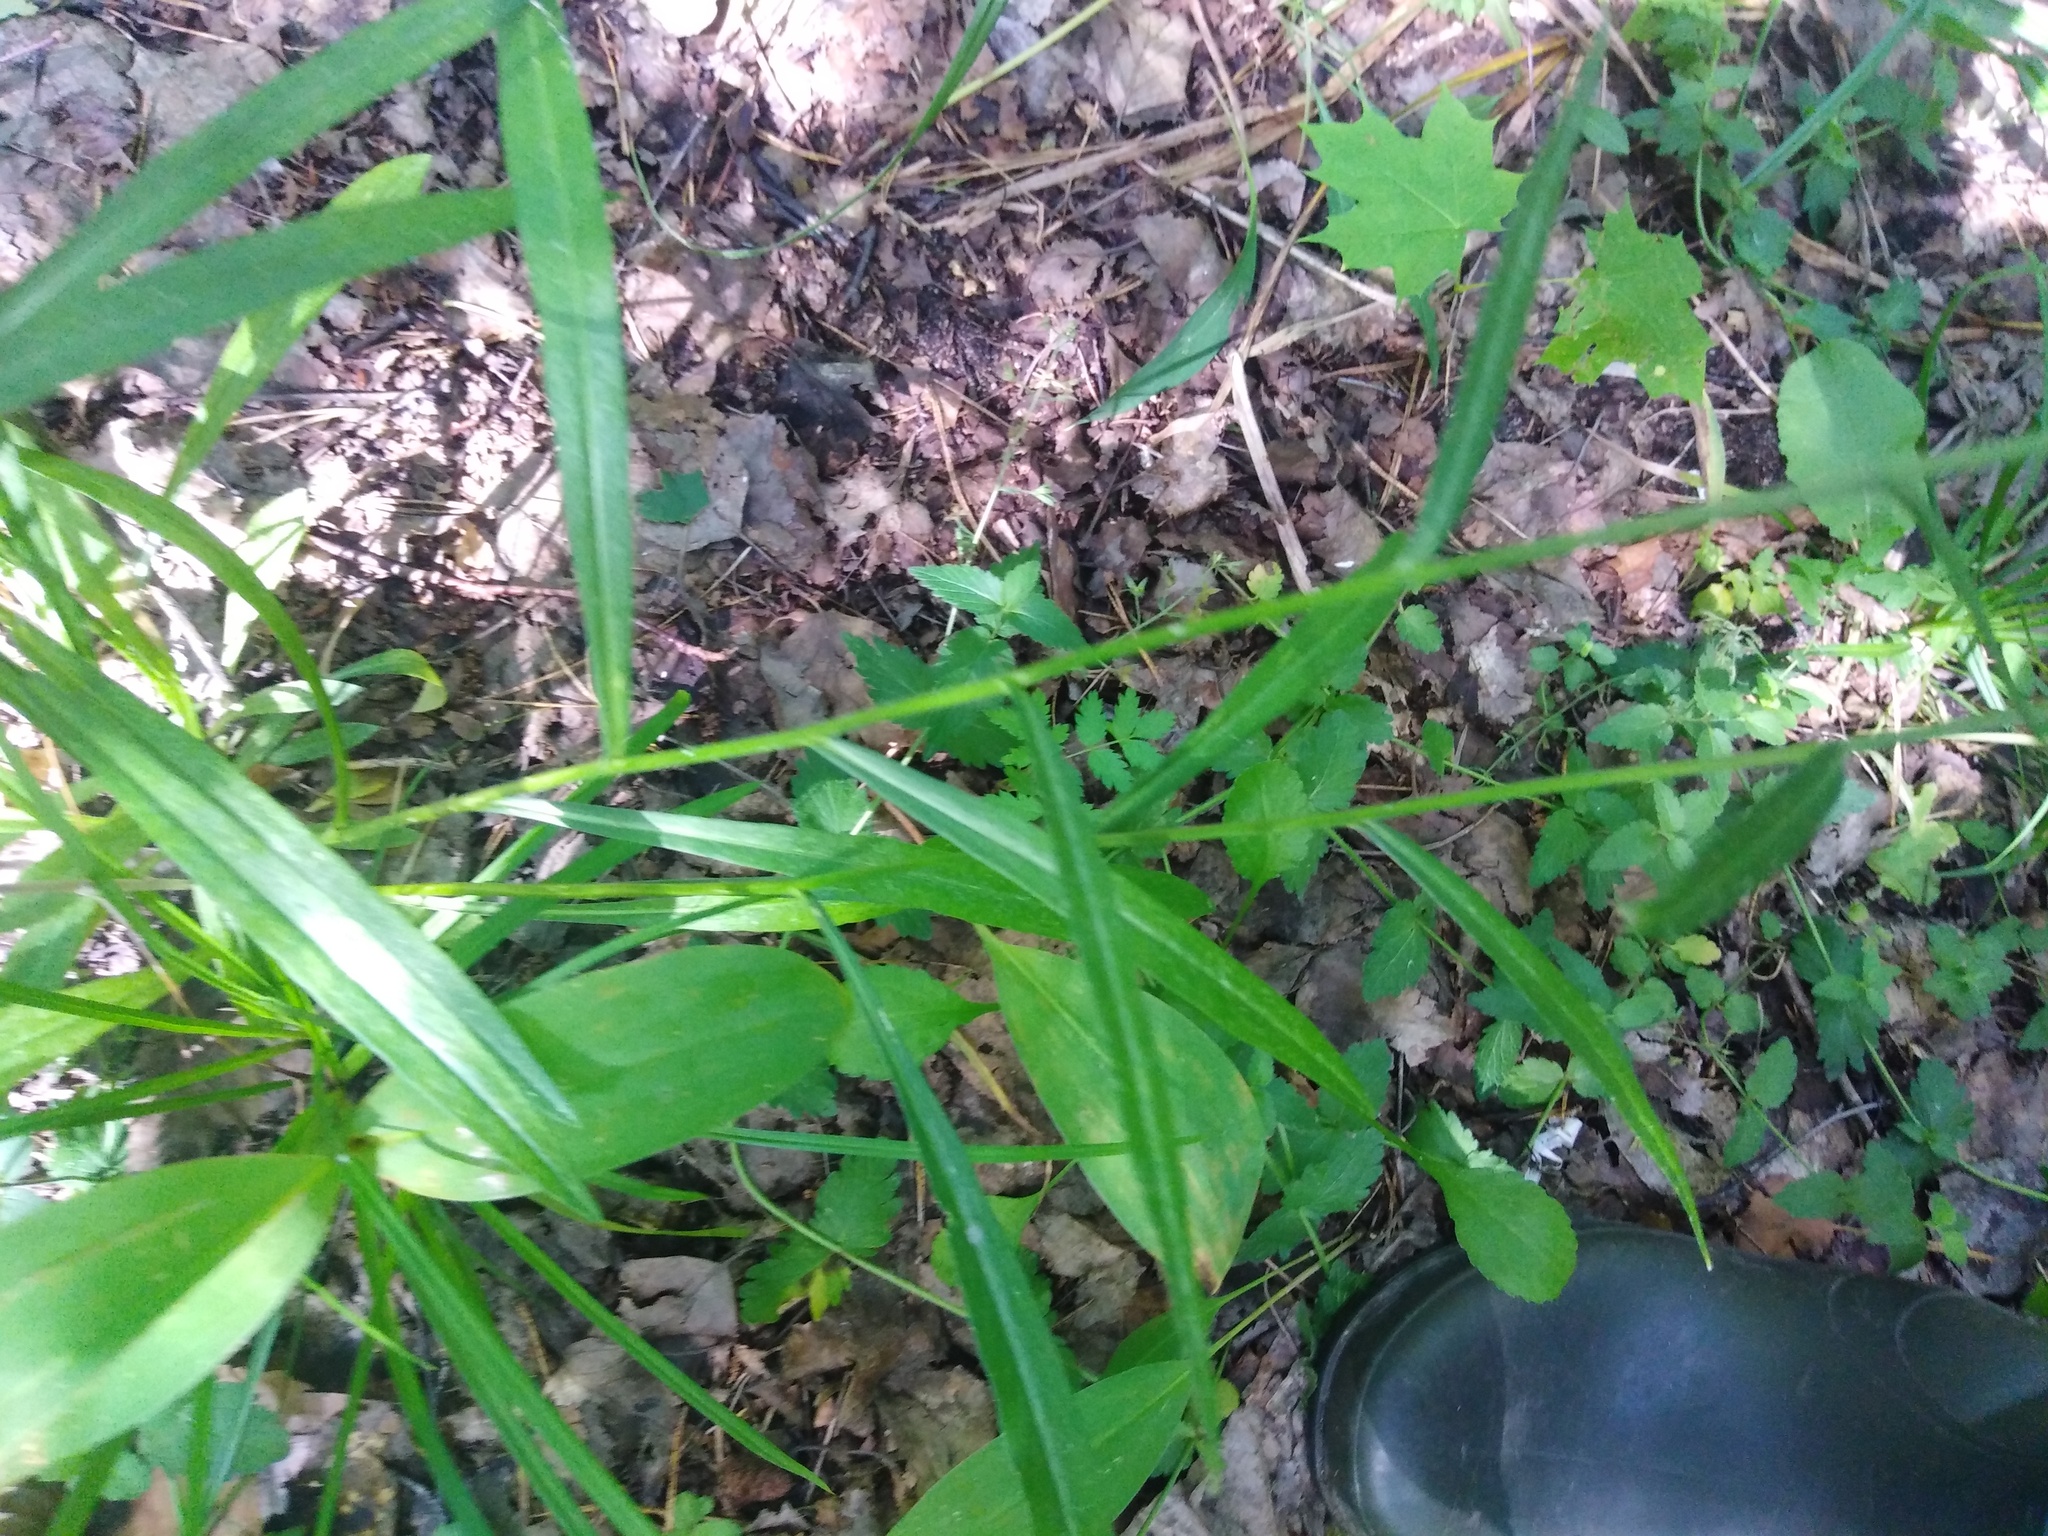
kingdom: Plantae
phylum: Tracheophyta
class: Magnoliopsida
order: Asterales
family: Campanulaceae
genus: Campanula
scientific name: Campanula persicifolia
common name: Peach-leaved bellflower
